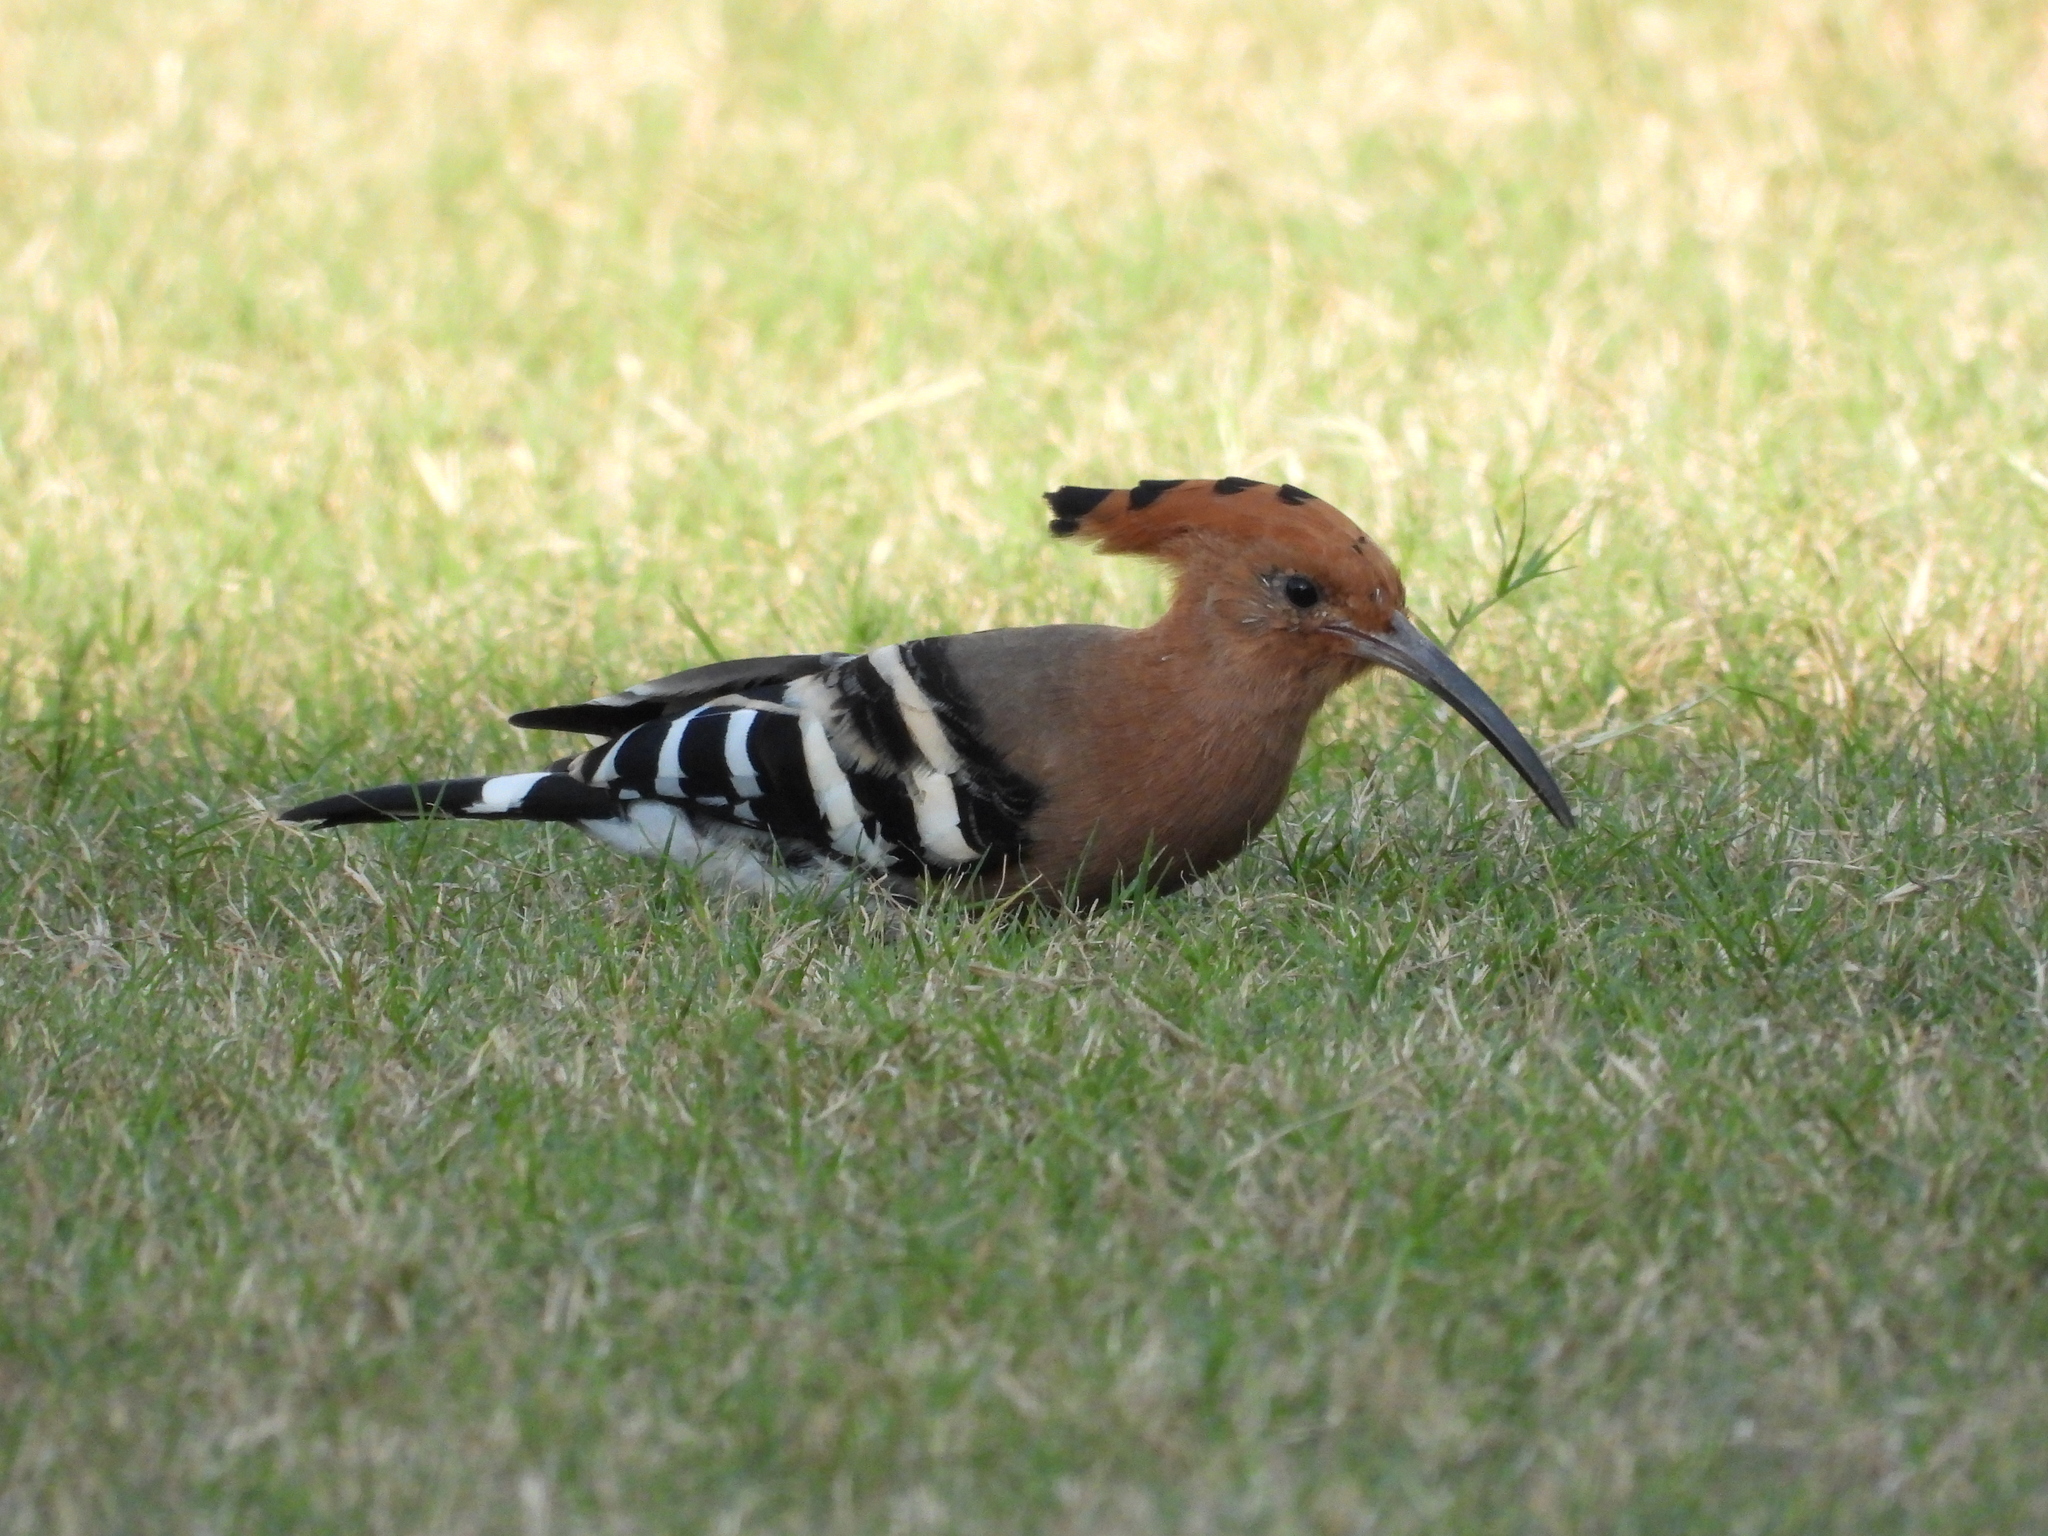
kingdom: Animalia
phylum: Chordata
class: Aves
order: Bucerotiformes
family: Upupidae
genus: Upupa
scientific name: Upupa epops
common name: Eurasian hoopoe
